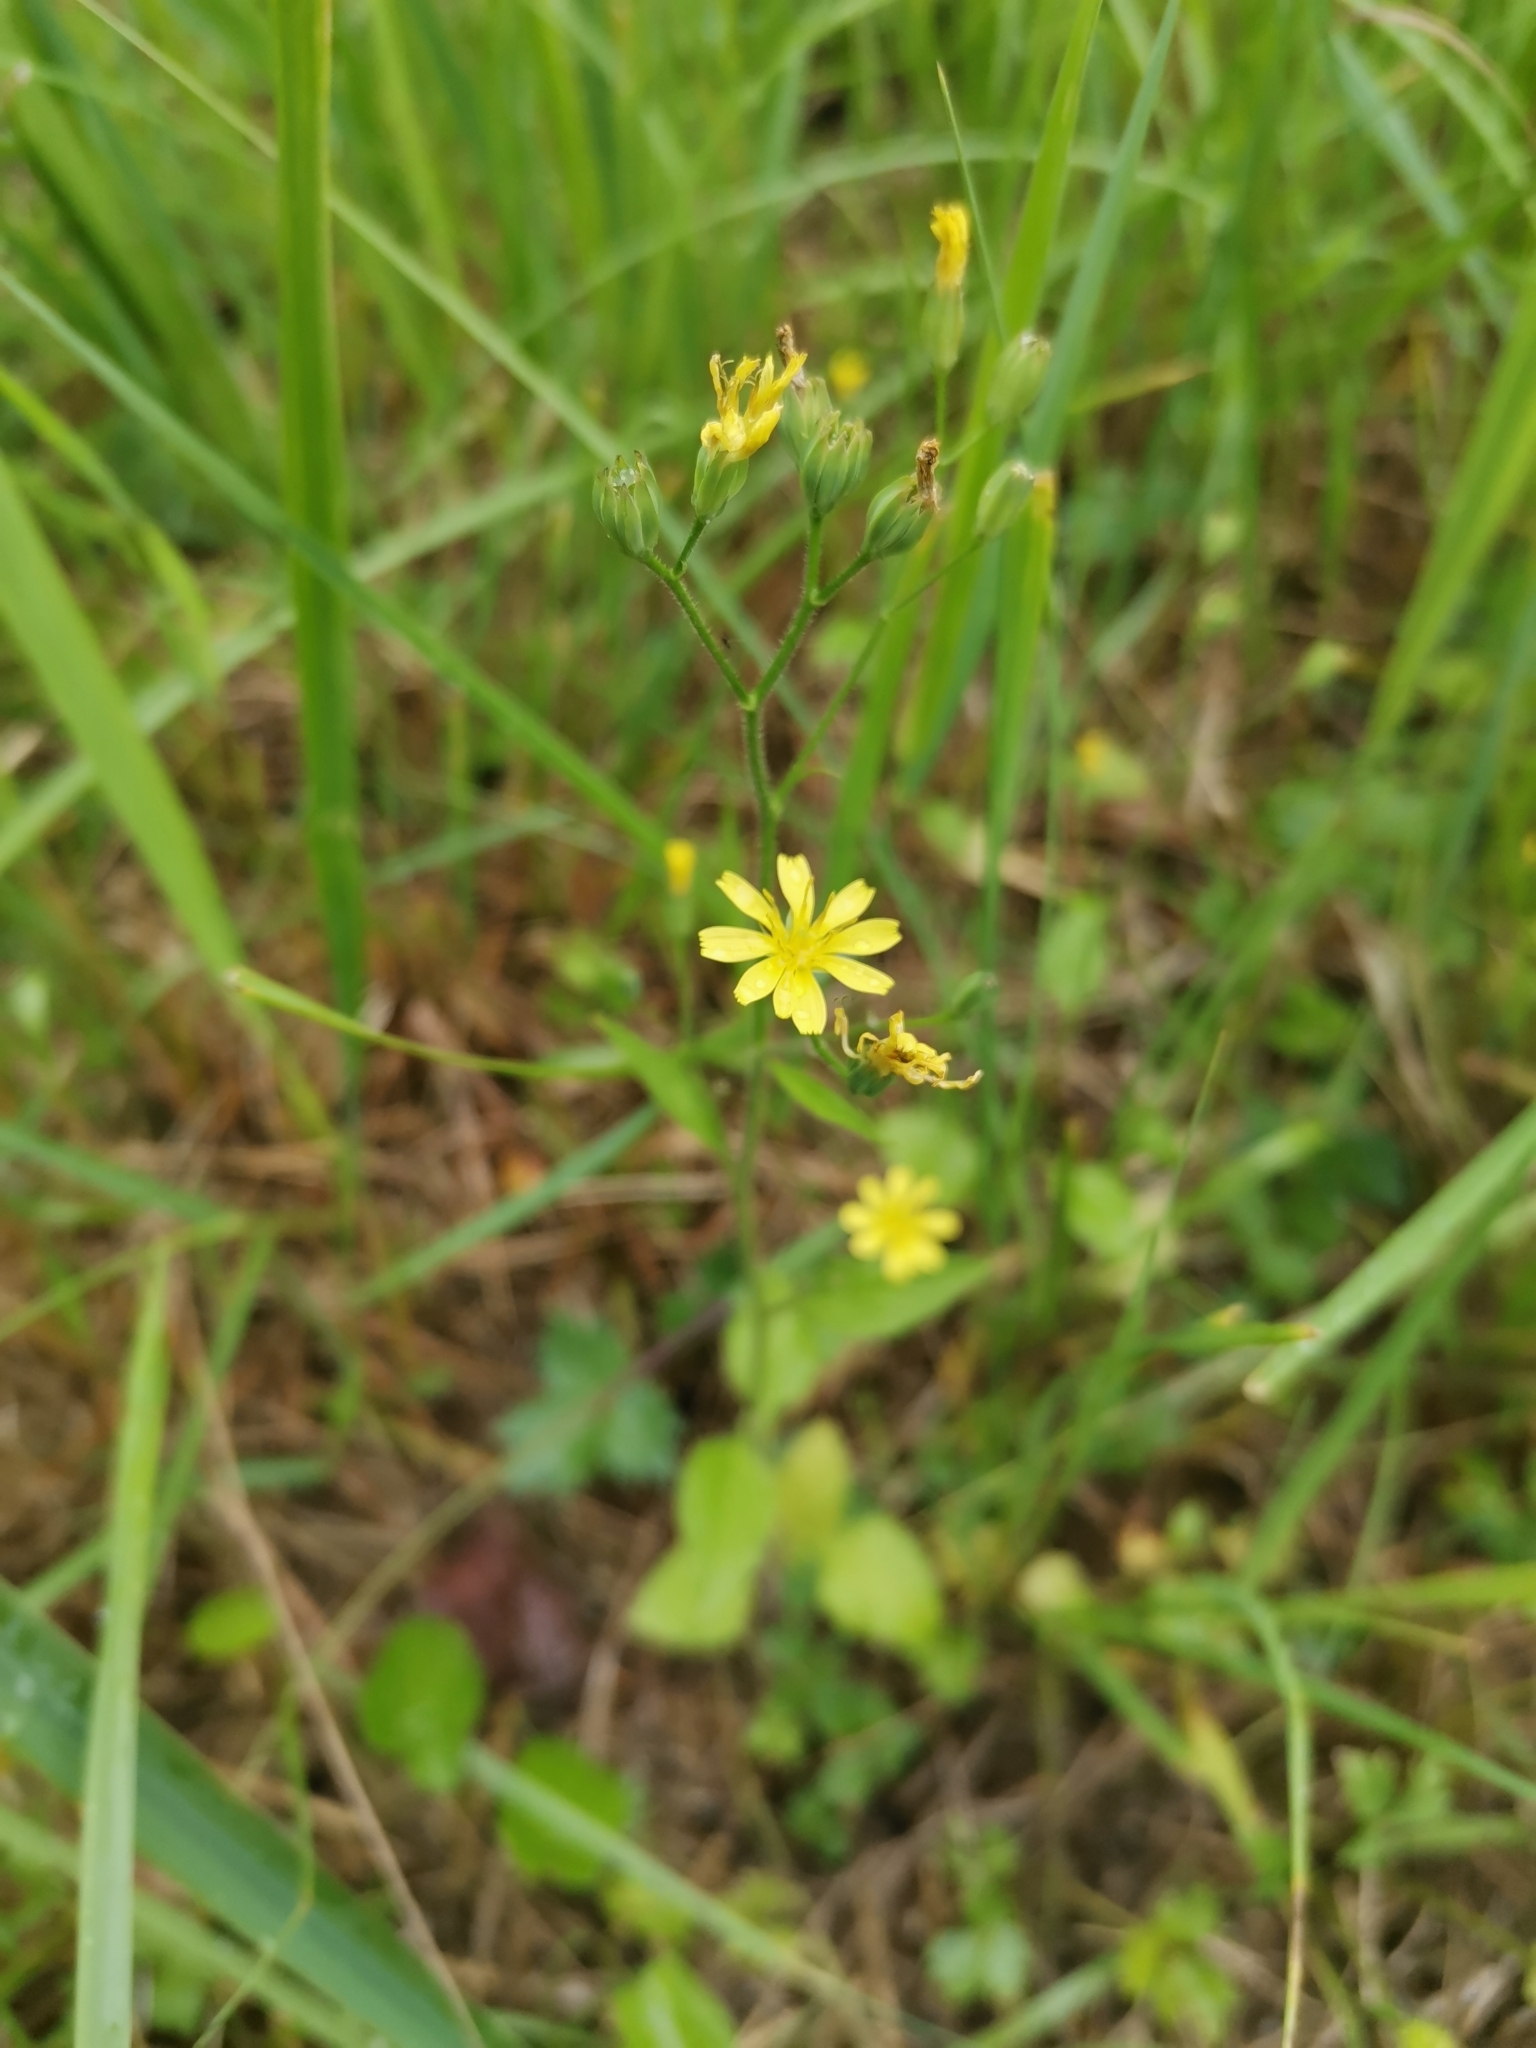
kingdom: Plantae
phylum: Tracheophyta
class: Magnoliopsida
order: Asterales
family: Asteraceae
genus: Lapsana
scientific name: Lapsana communis
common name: Nipplewort
